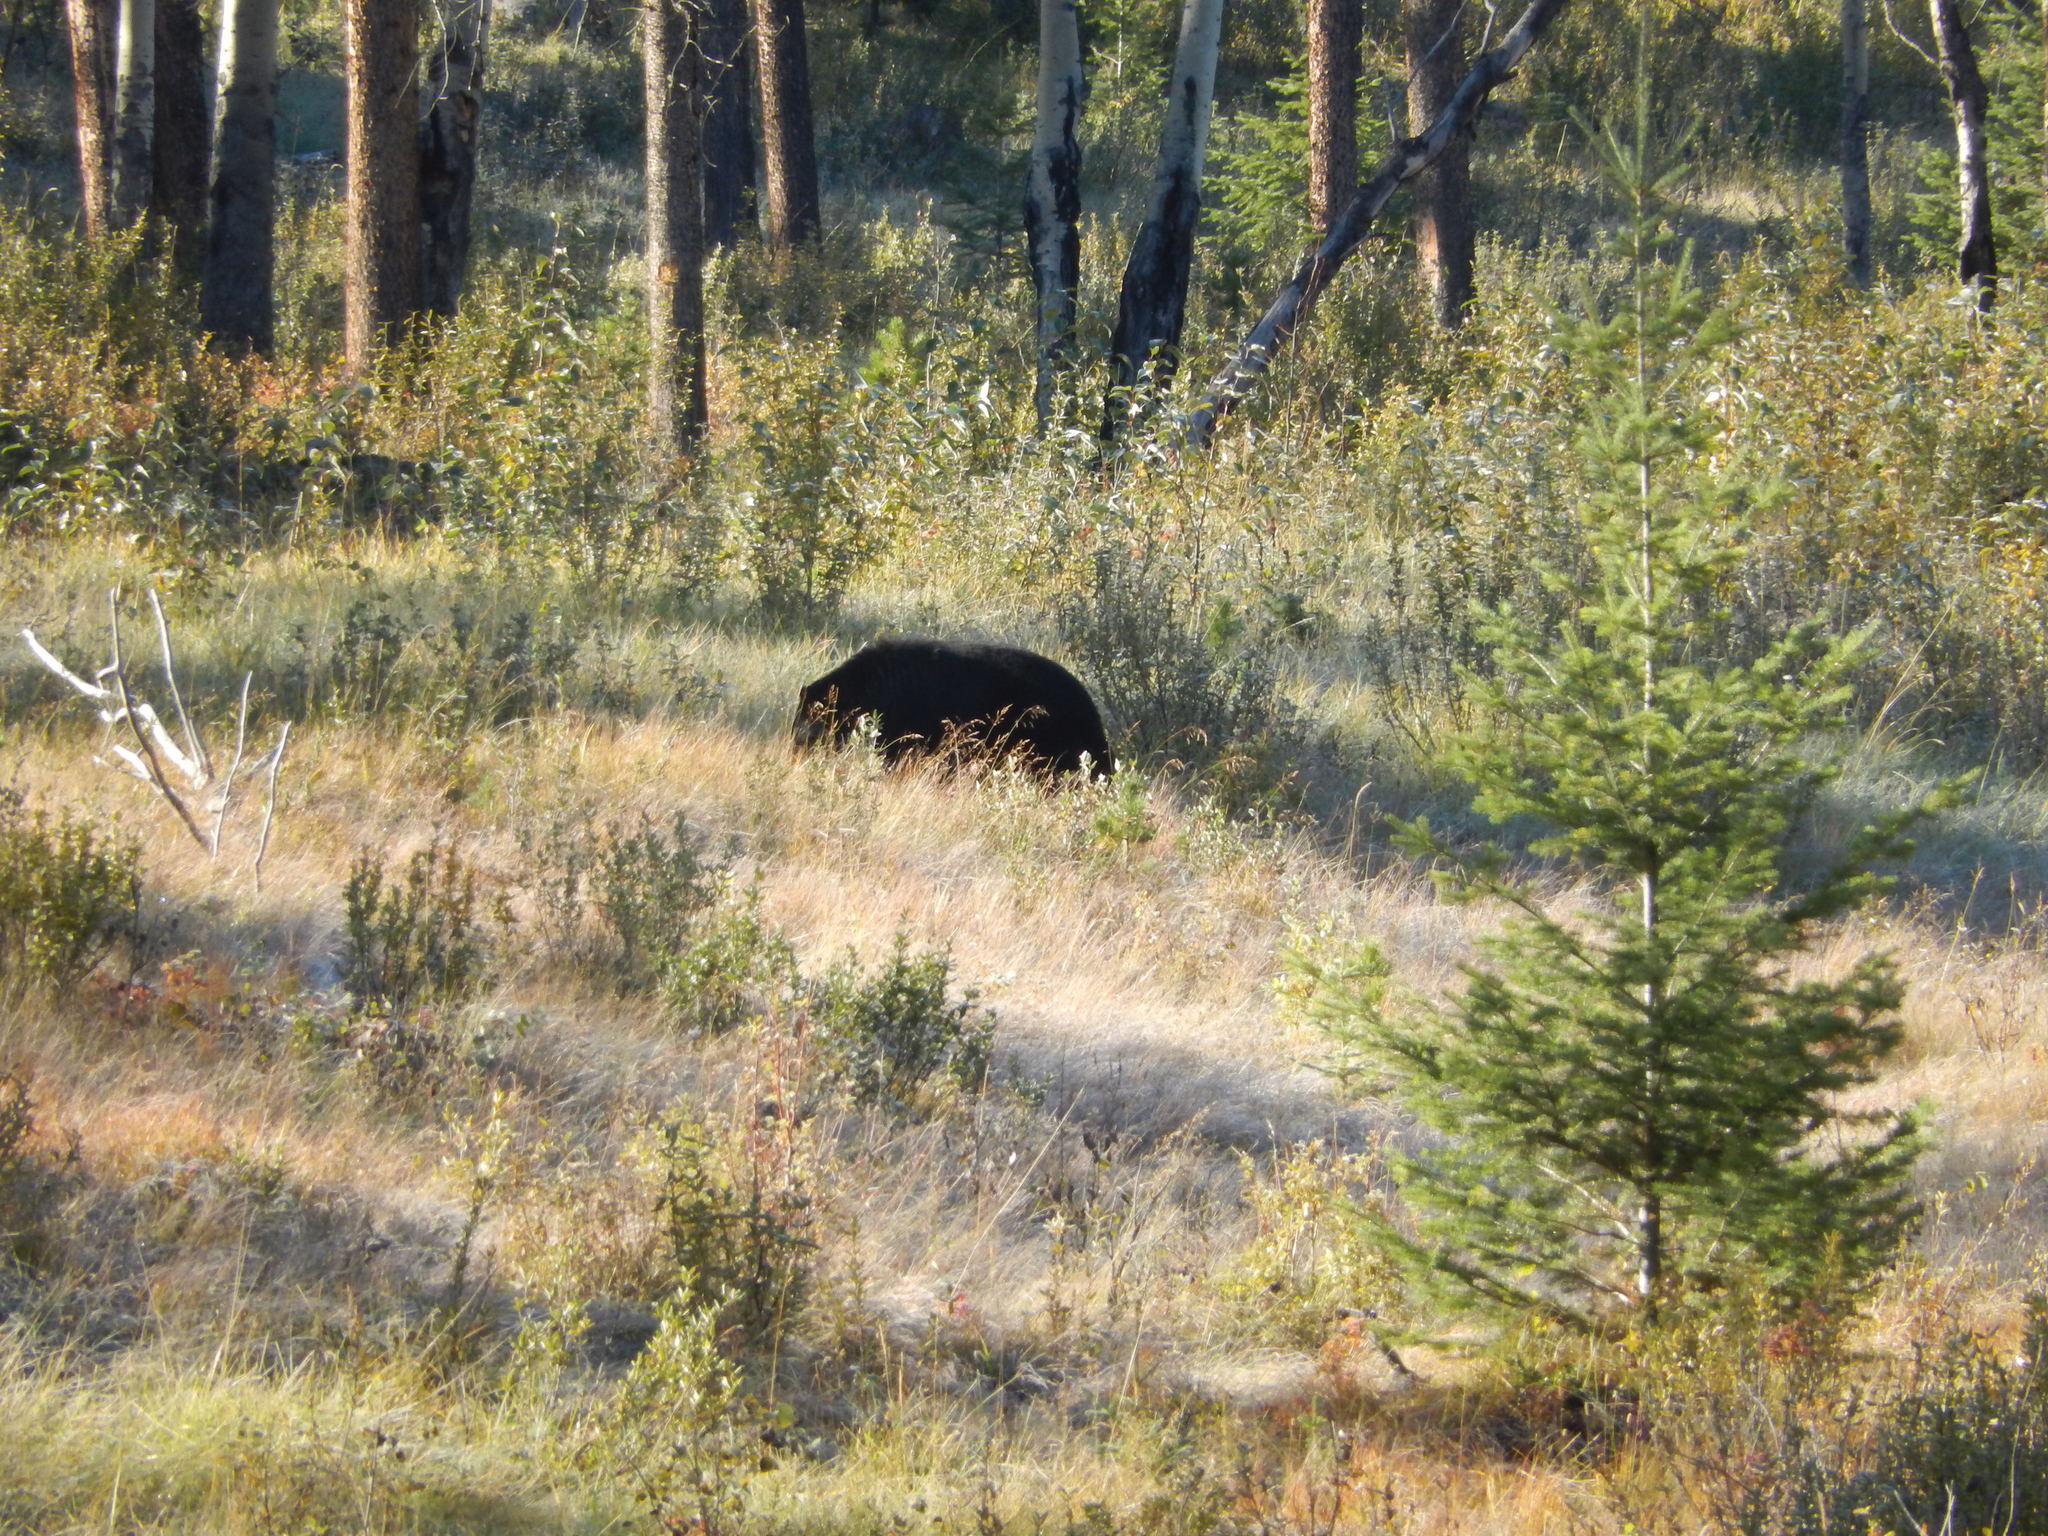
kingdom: Animalia
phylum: Chordata
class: Mammalia
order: Carnivora
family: Ursidae
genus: Ursus
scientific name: Ursus americanus
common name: American black bear
